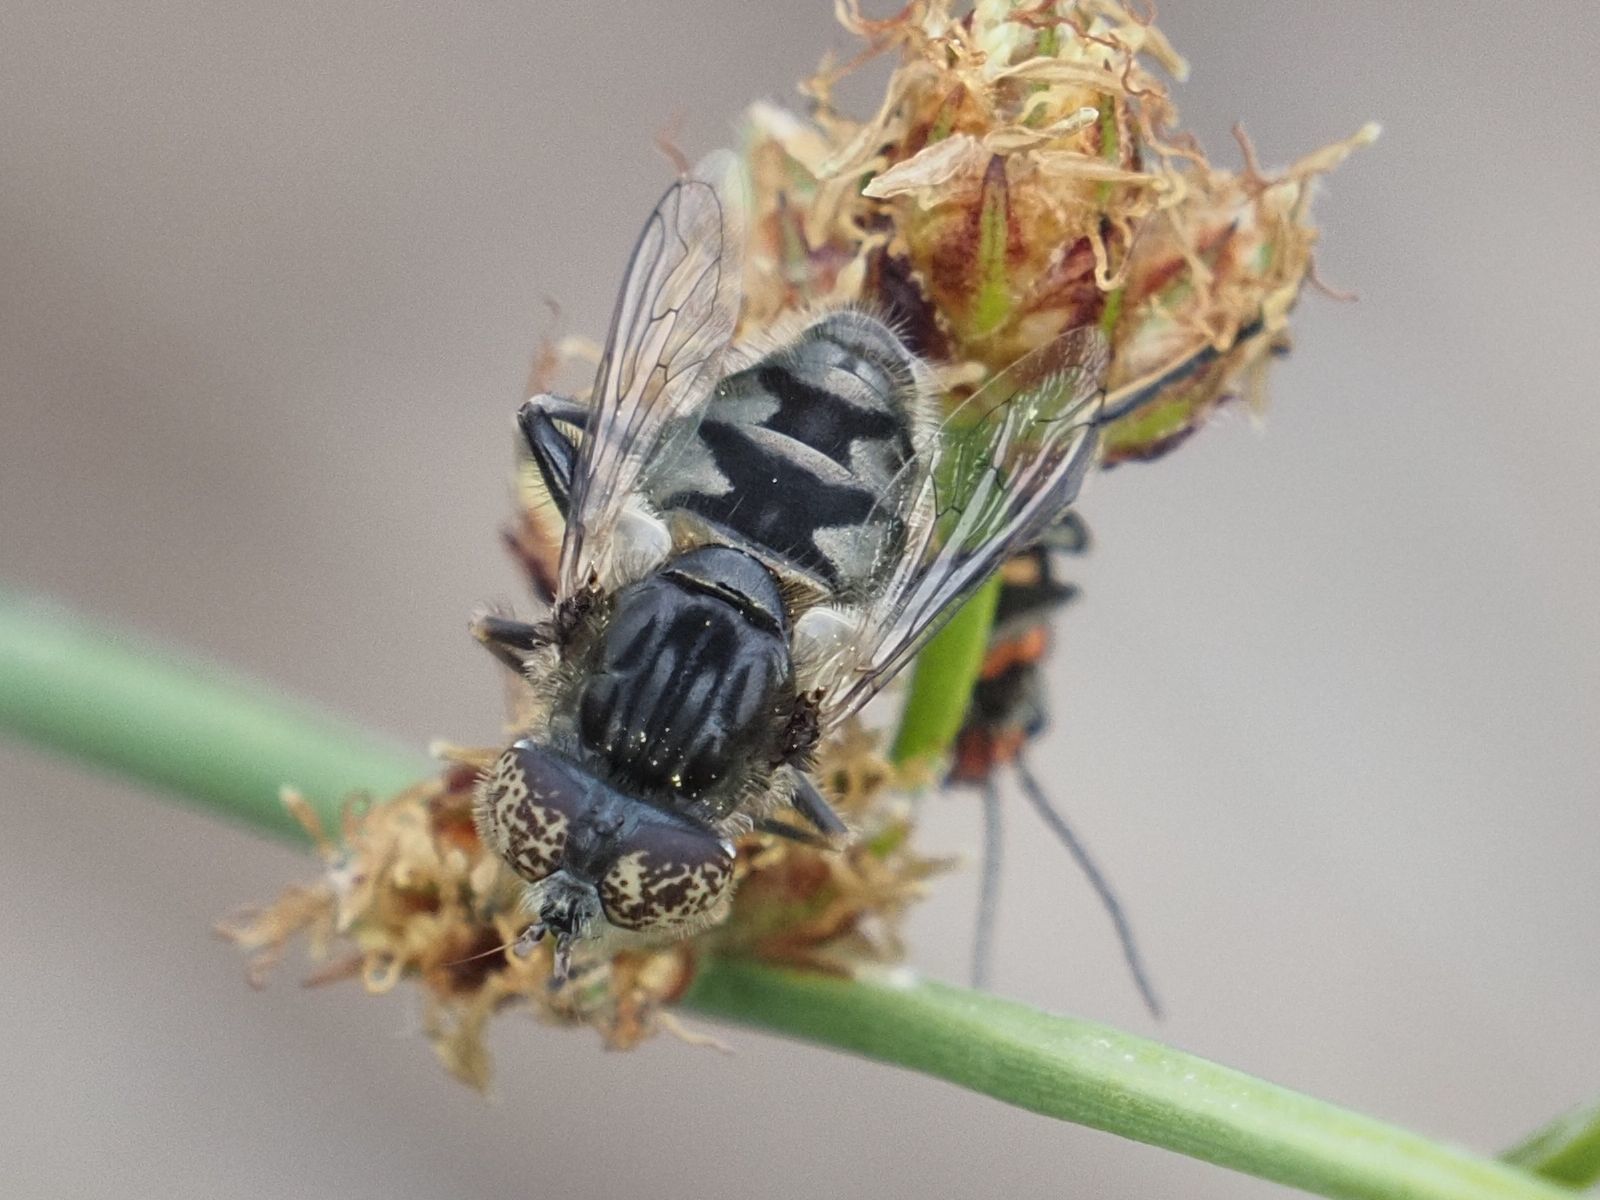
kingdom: Animalia
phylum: Arthropoda
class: Insecta
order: Diptera
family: Syrphidae
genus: Eristalinus
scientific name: Eristalinus sepulchralis
